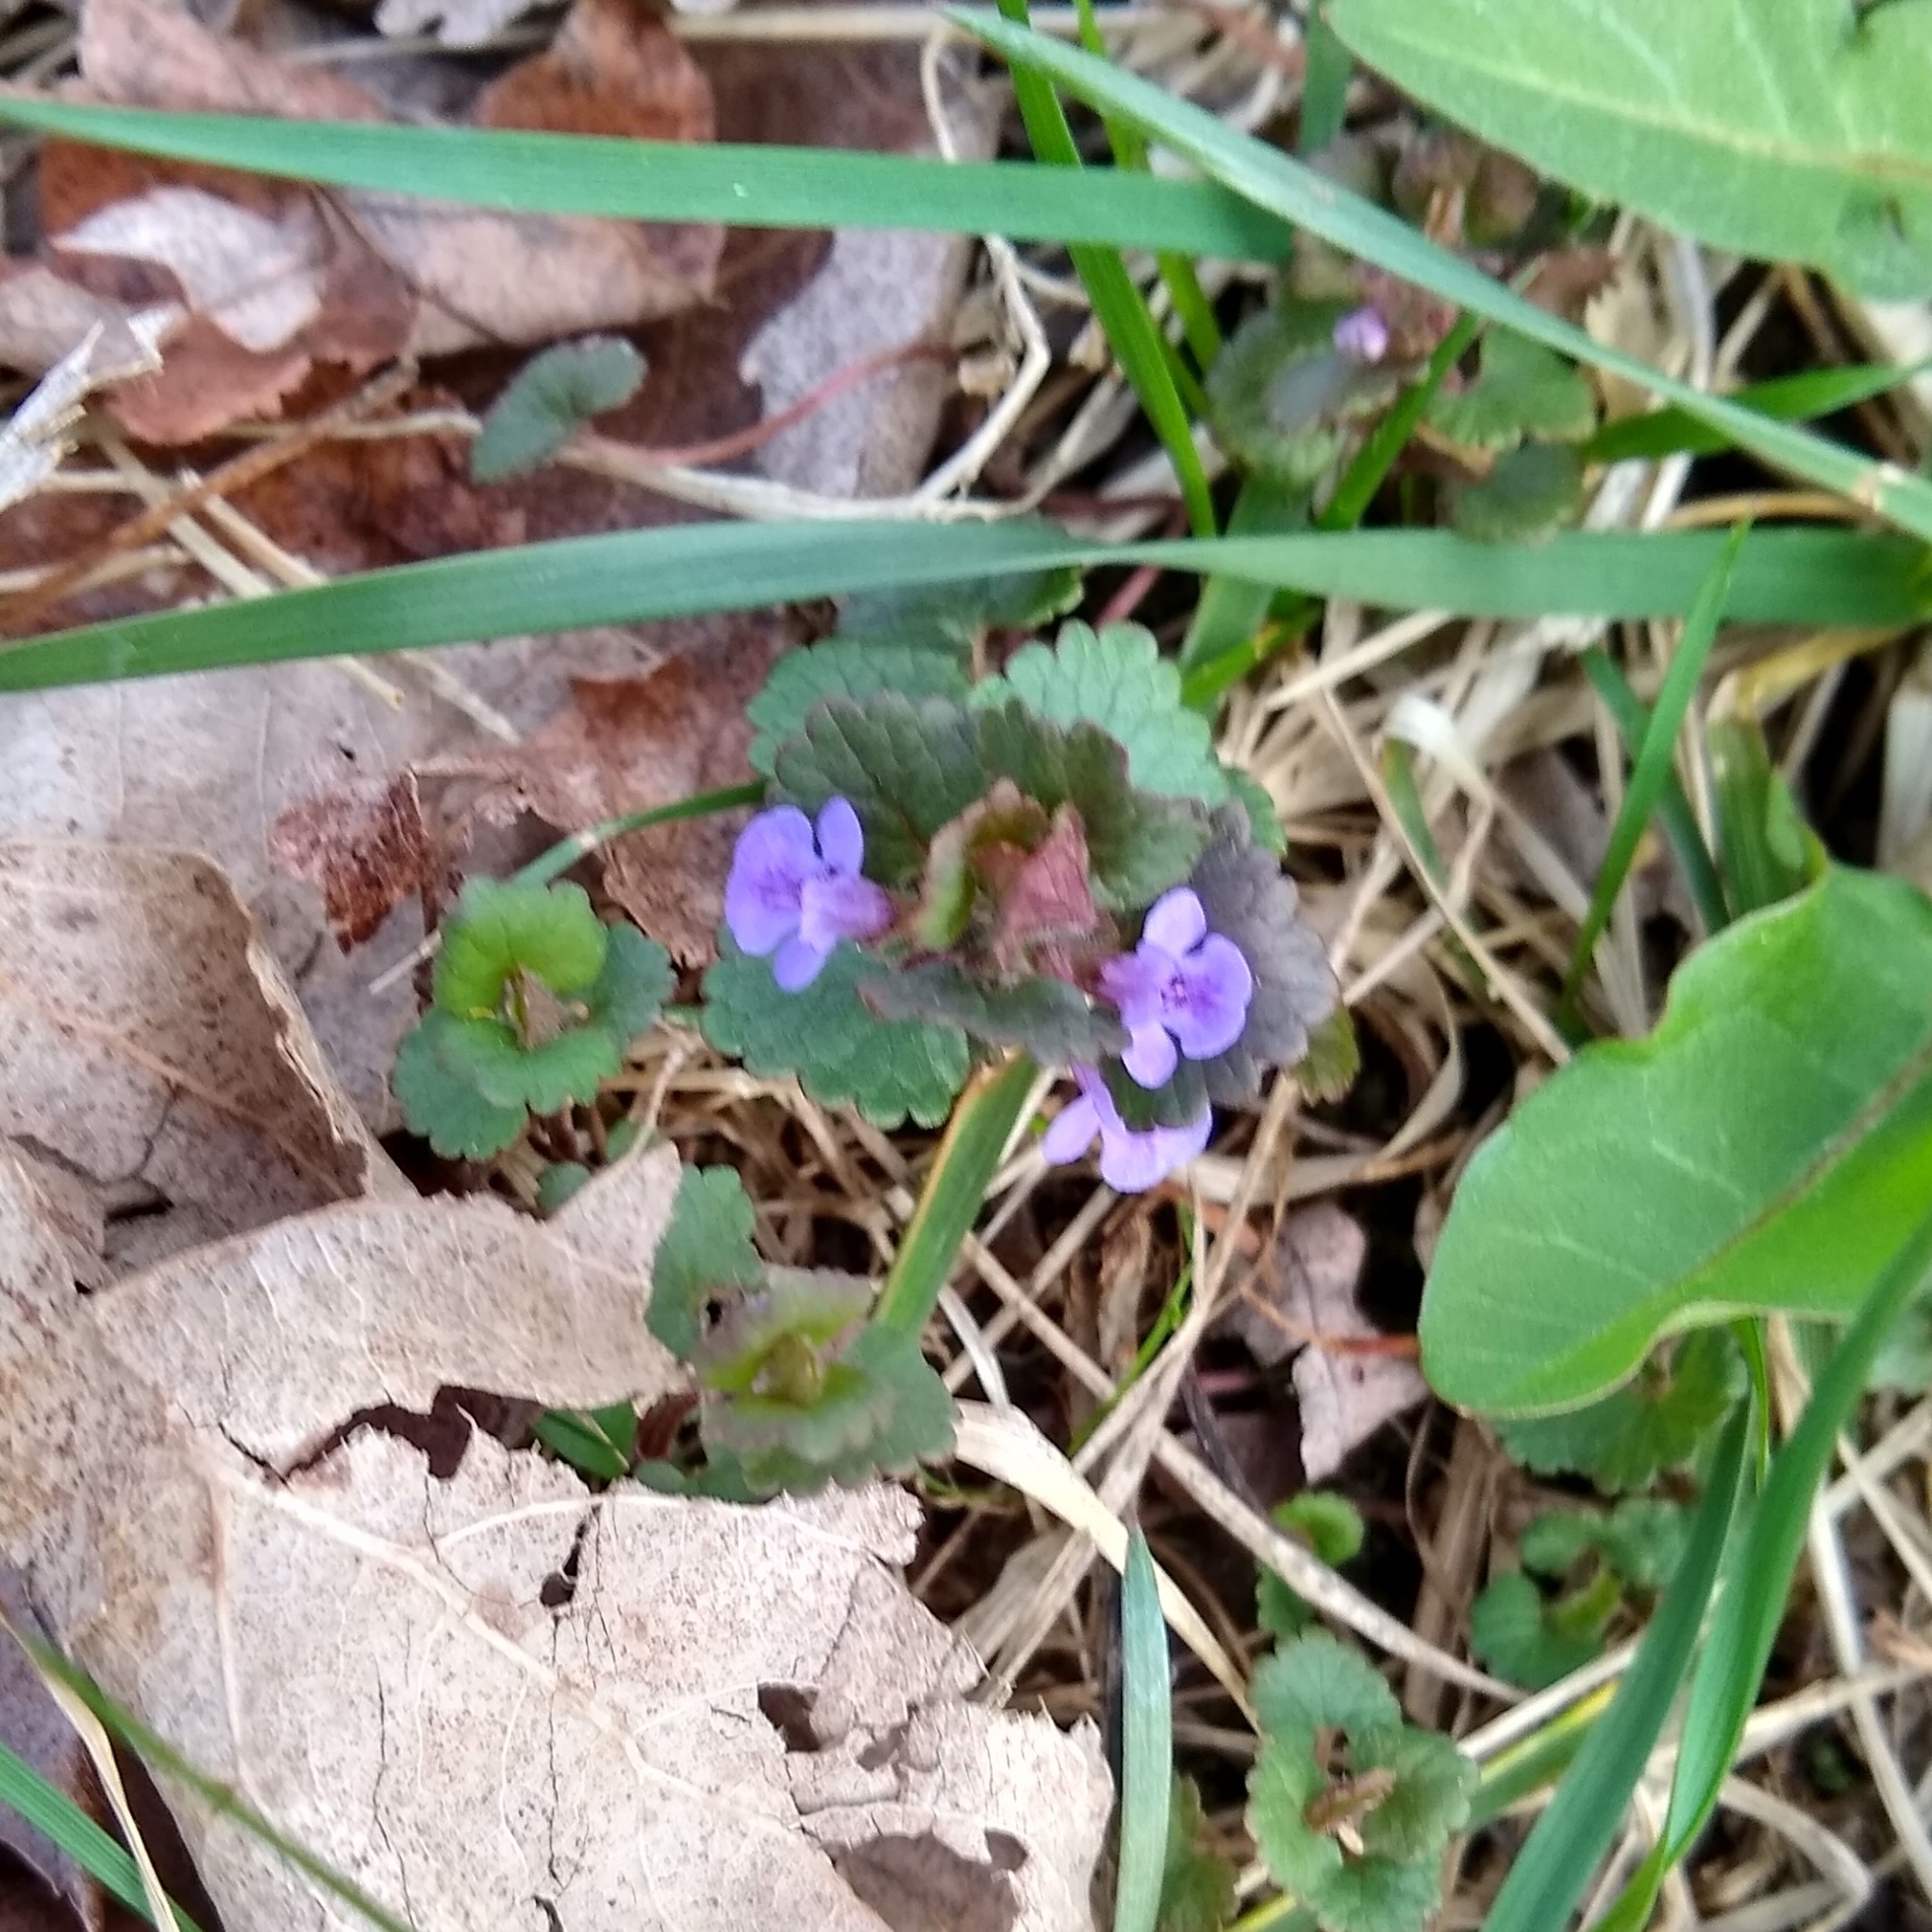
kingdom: Plantae
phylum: Tracheophyta
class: Magnoliopsida
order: Lamiales
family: Lamiaceae
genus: Glechoma
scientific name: Glechoma hederacea
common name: Ground ivy
